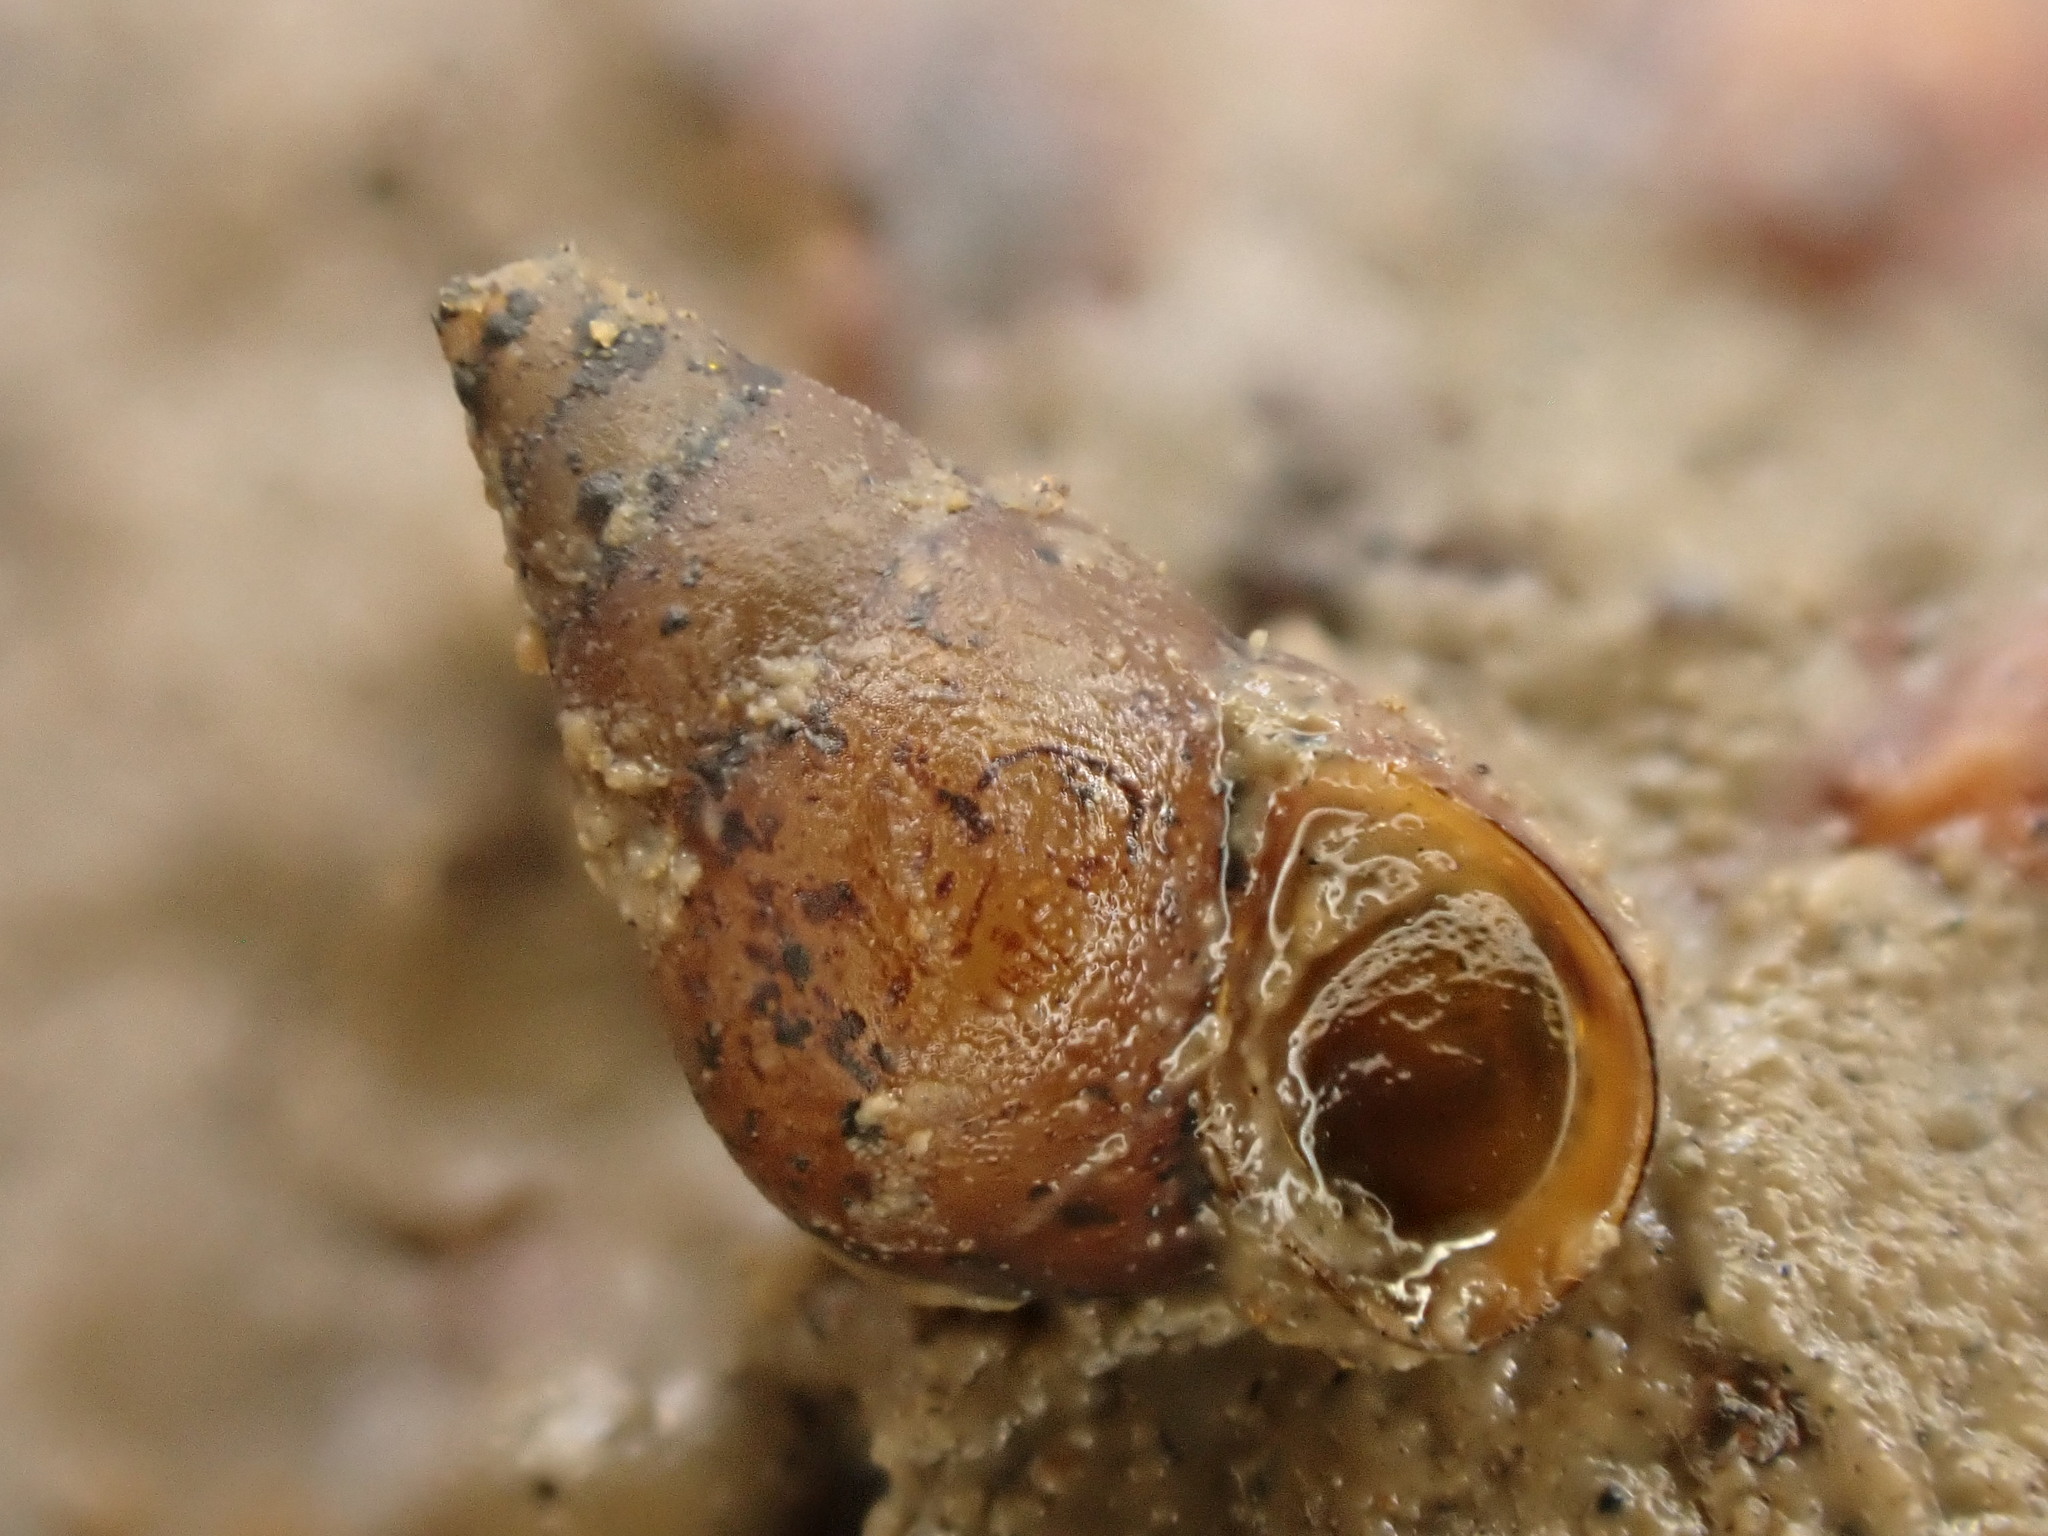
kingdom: Animalia
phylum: Mollusca
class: Gastropoda
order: Littorinimorpha
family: Tateidae
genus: Potamopyrgus
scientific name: Potamopyrgus estuarinus
